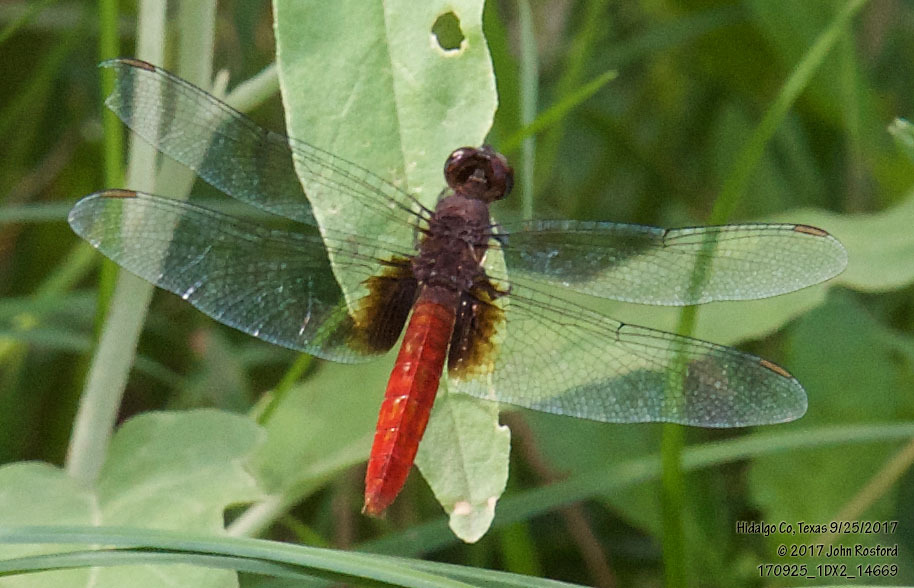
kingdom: Animalia
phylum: Arthropoda
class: Insecta
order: Odonata
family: Libellulidae
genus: Planiplax
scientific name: Planiplax sanguiniventris
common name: Mexican scarlet-tail
